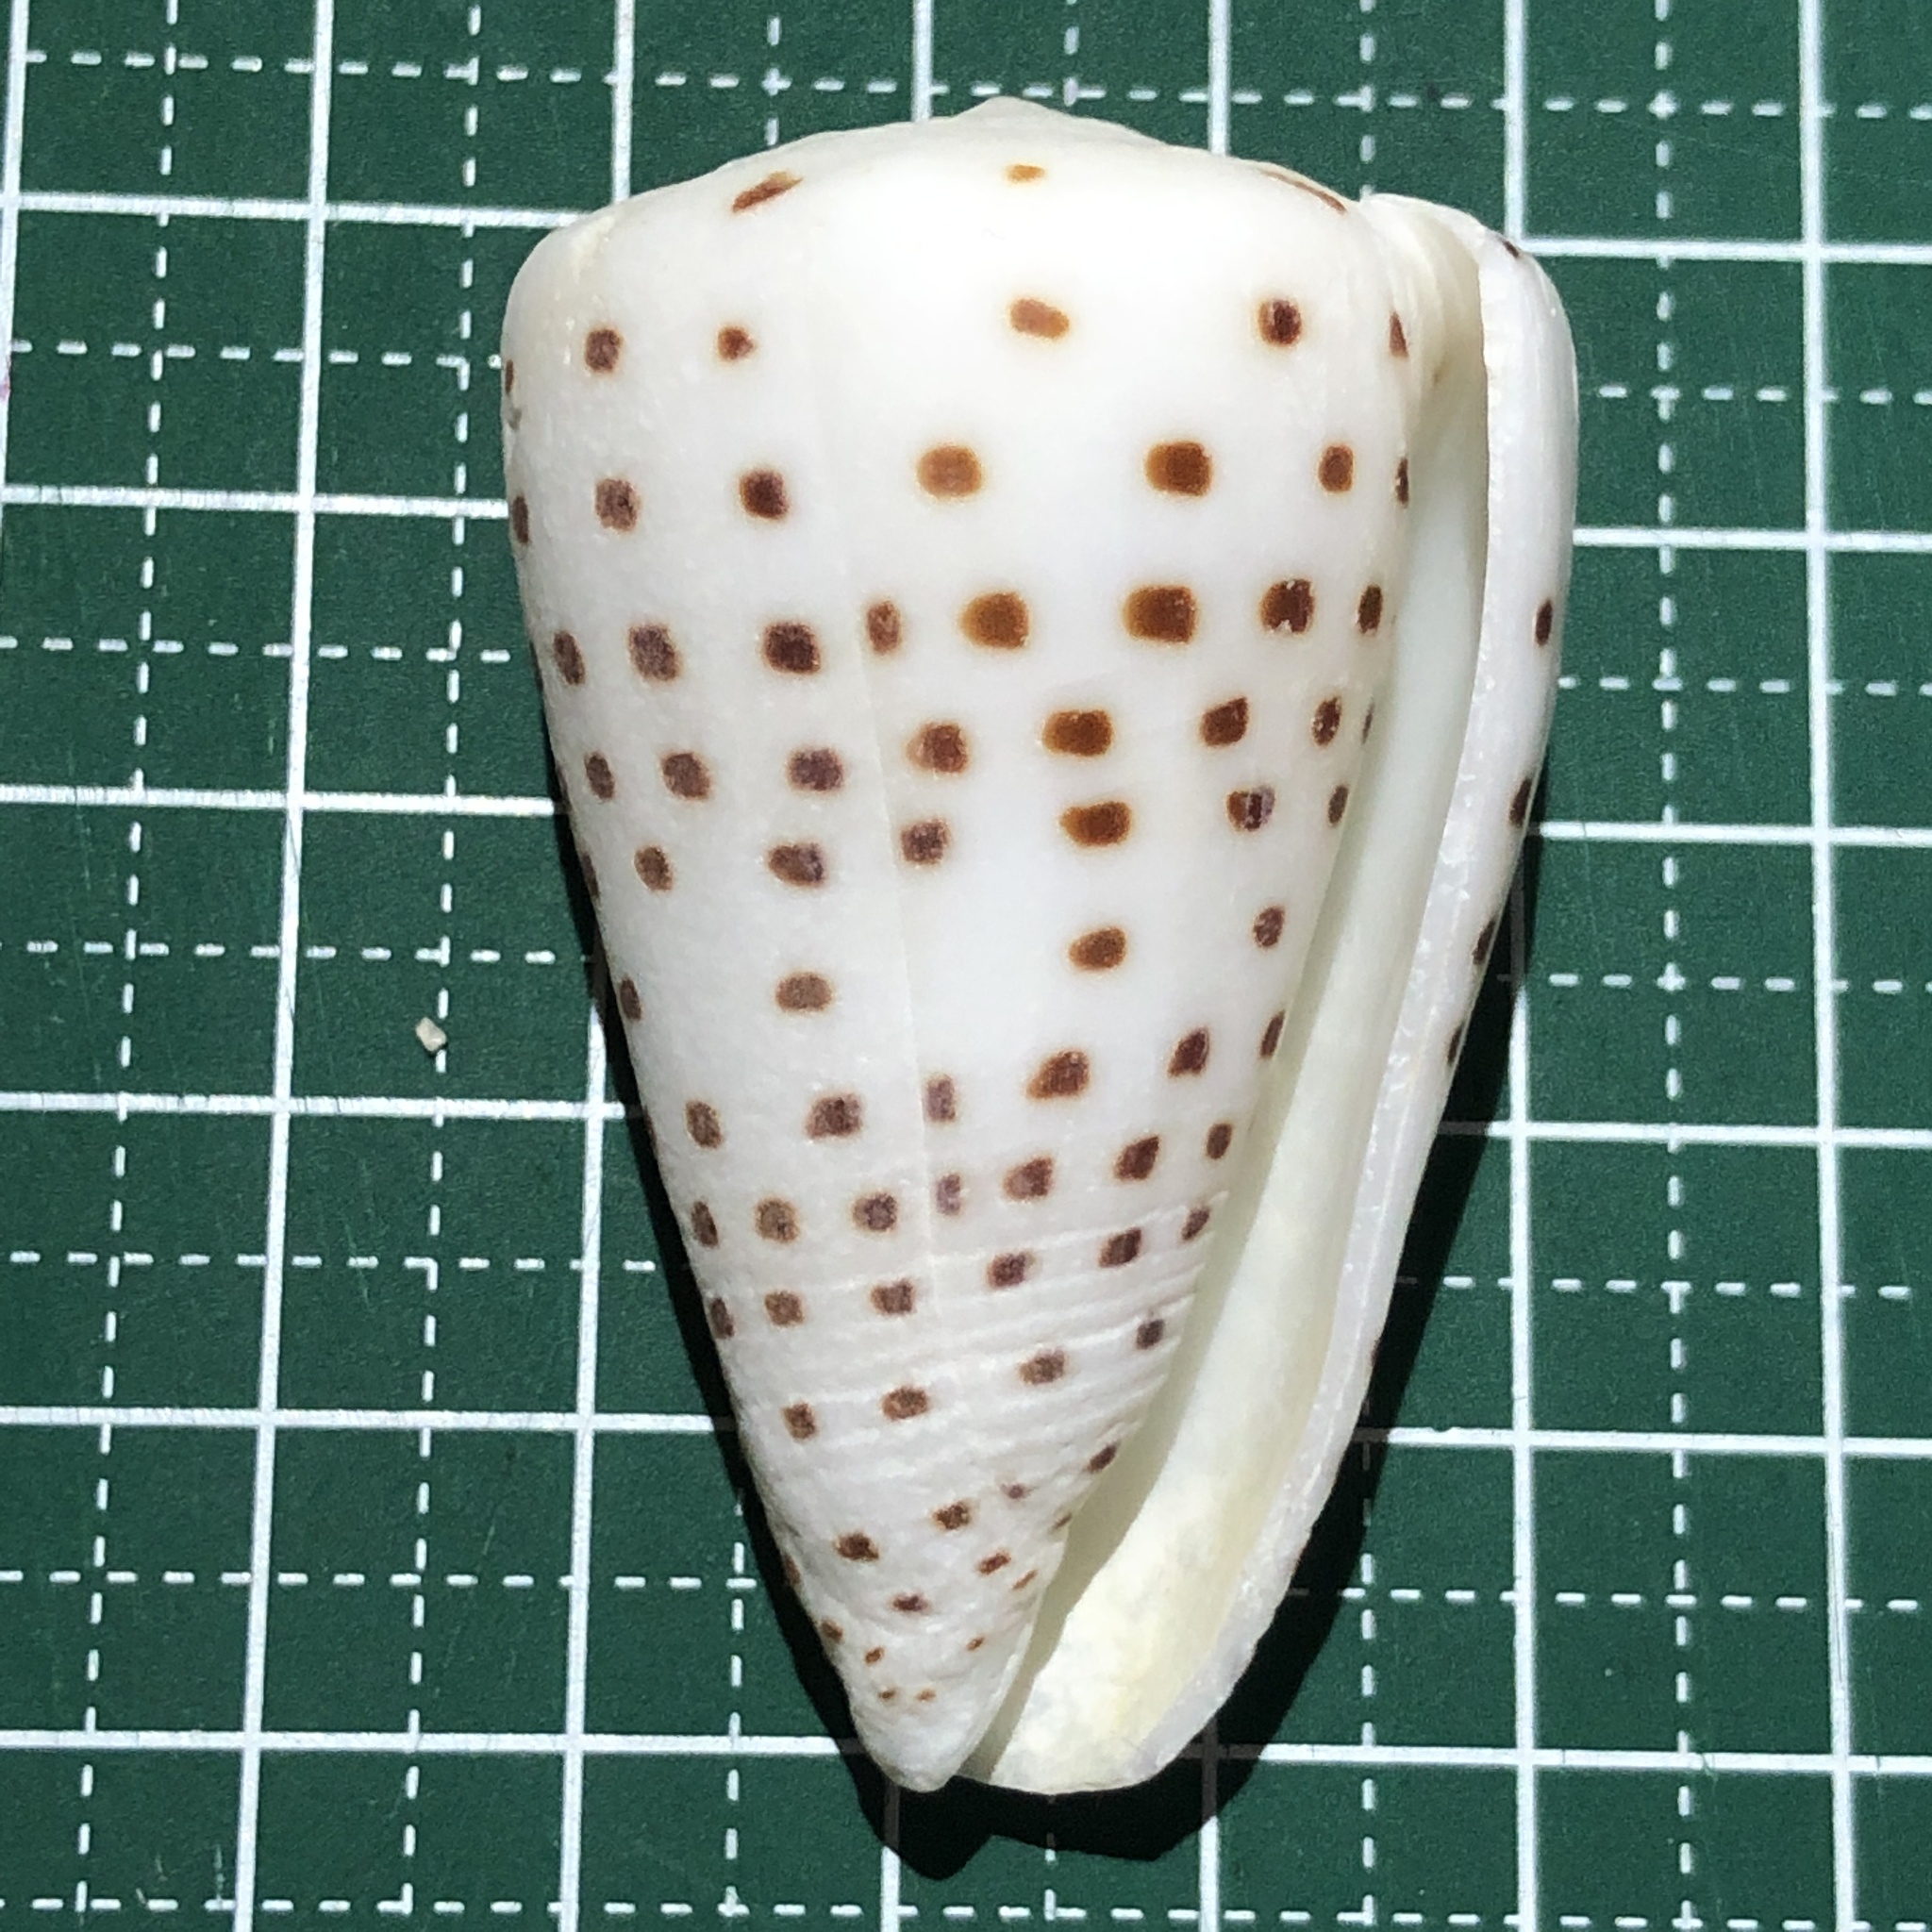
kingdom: Animalia
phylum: Mollusca
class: Gastropoda
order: Neogastropoda
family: Conidae
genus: Conus
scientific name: Conus eburneus
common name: Ivory cone
